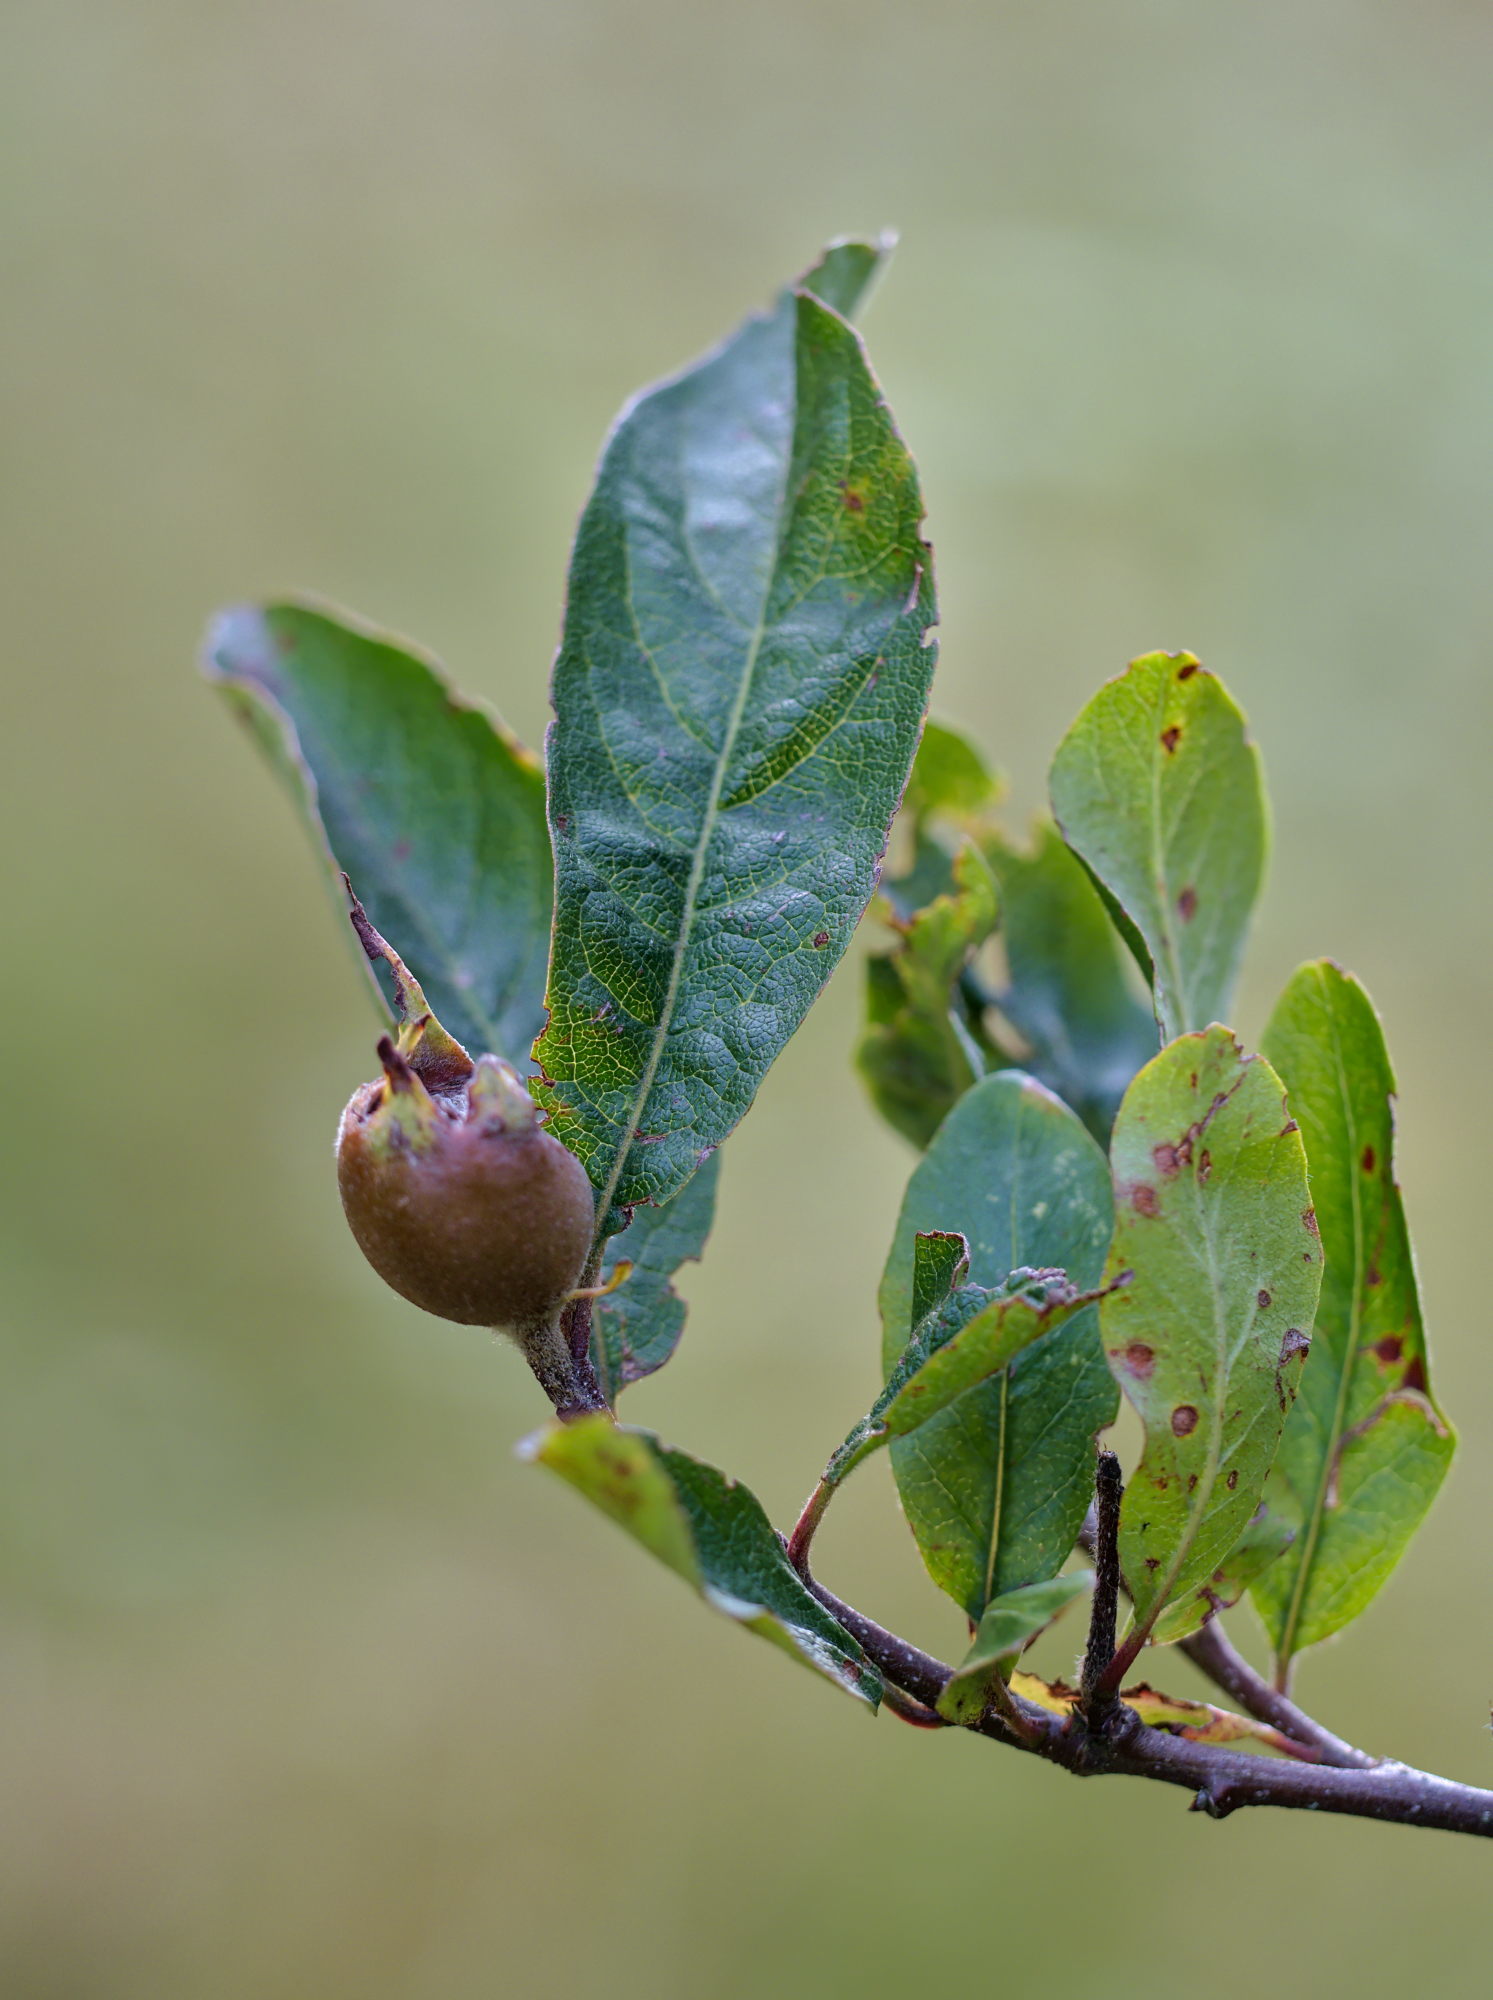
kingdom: Plantae
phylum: Tracheophyta
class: Magnoliopsida
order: Rosales
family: Rosaceae
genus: Mespilus
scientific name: Mespilus germanica
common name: Medlar
